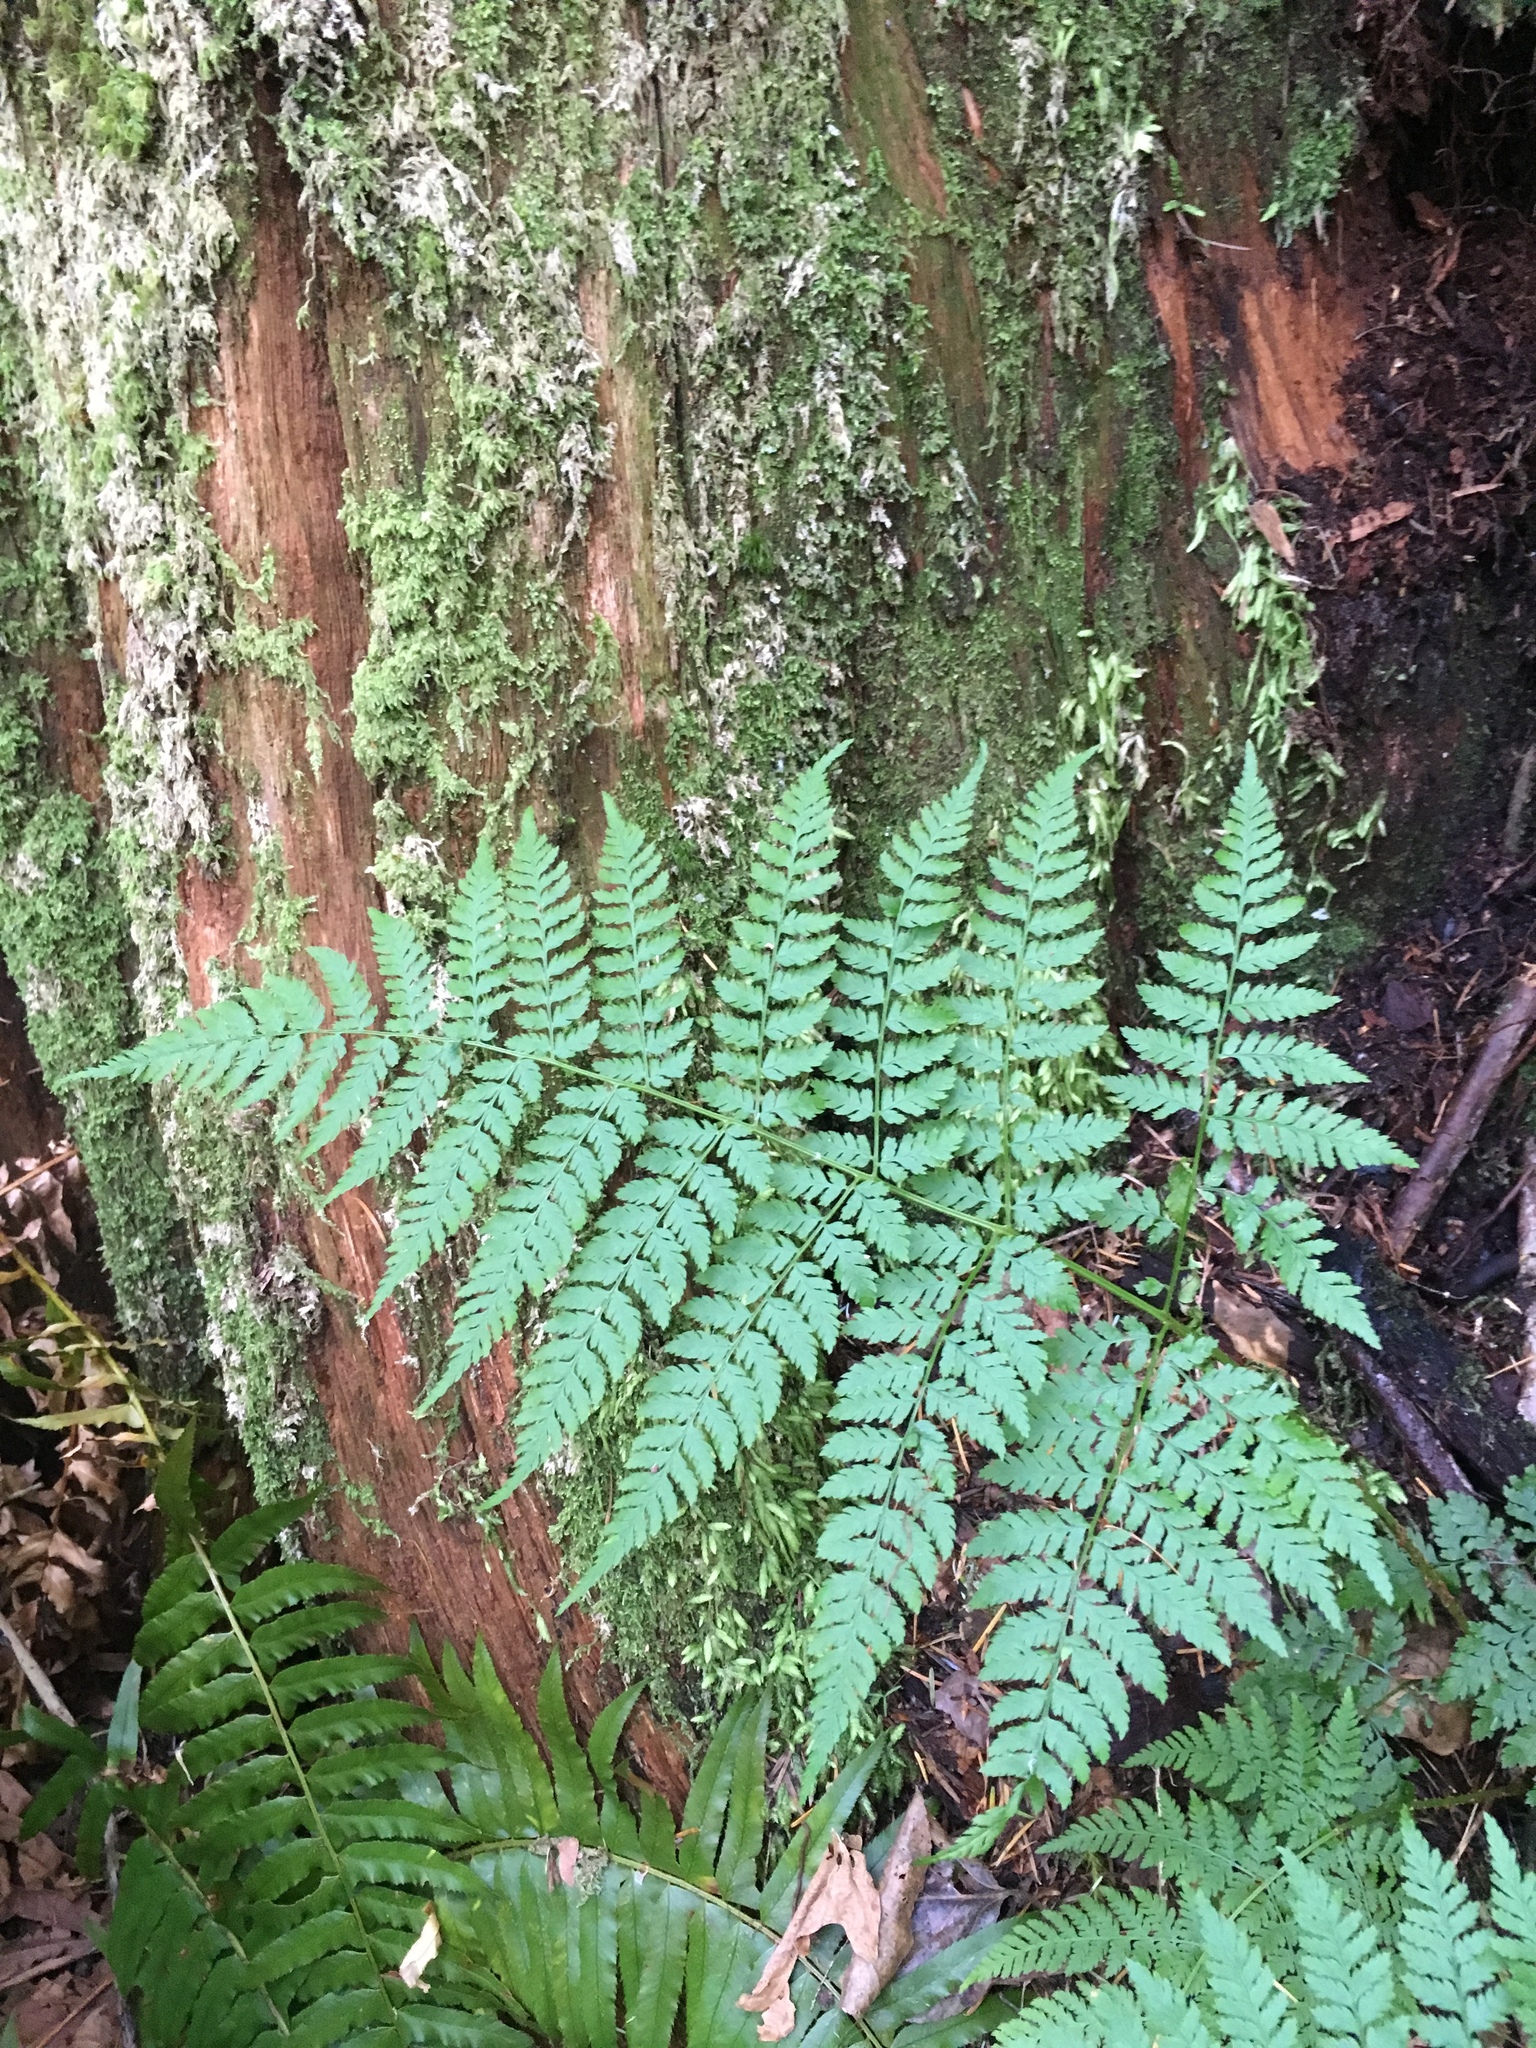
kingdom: Plantae
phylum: Tracheophyta
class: Polypodiopsida
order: Polypodiales
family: Dryopteridaceae
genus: Dryopteris
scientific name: Dryopteris expansa
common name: Northern buckler fern
